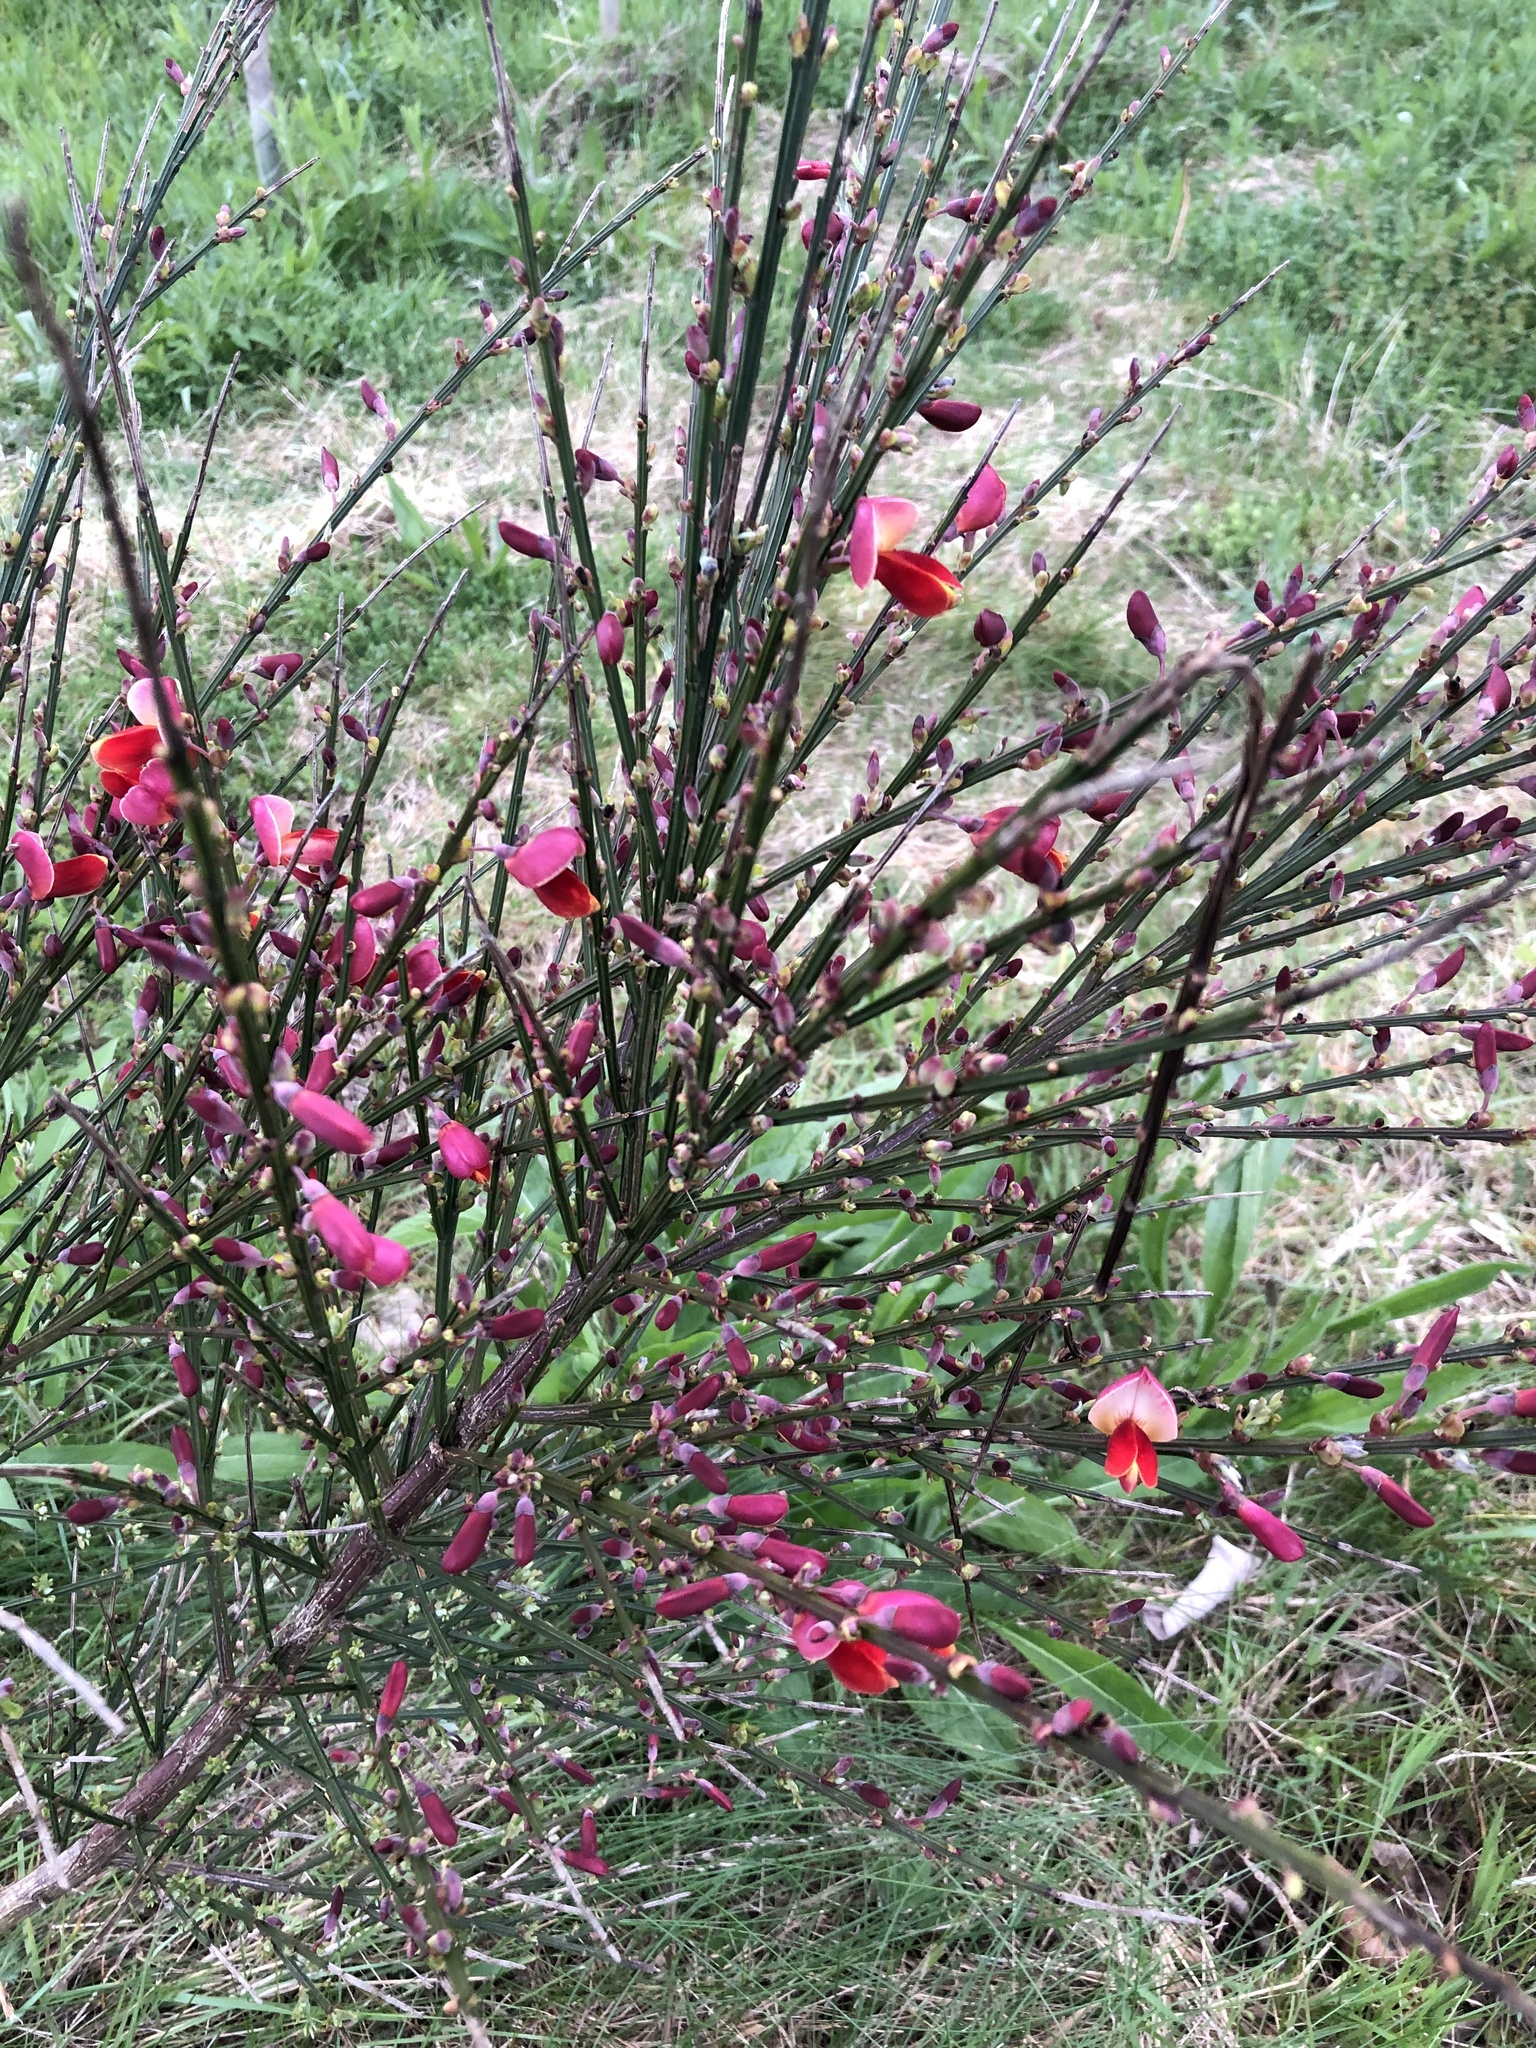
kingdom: Plantae
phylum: Tracheophyta
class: Magnoliopsida
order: Fabales
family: Fabaceae
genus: Cytisus
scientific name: Cytisus scoparius
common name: Scotch broom
